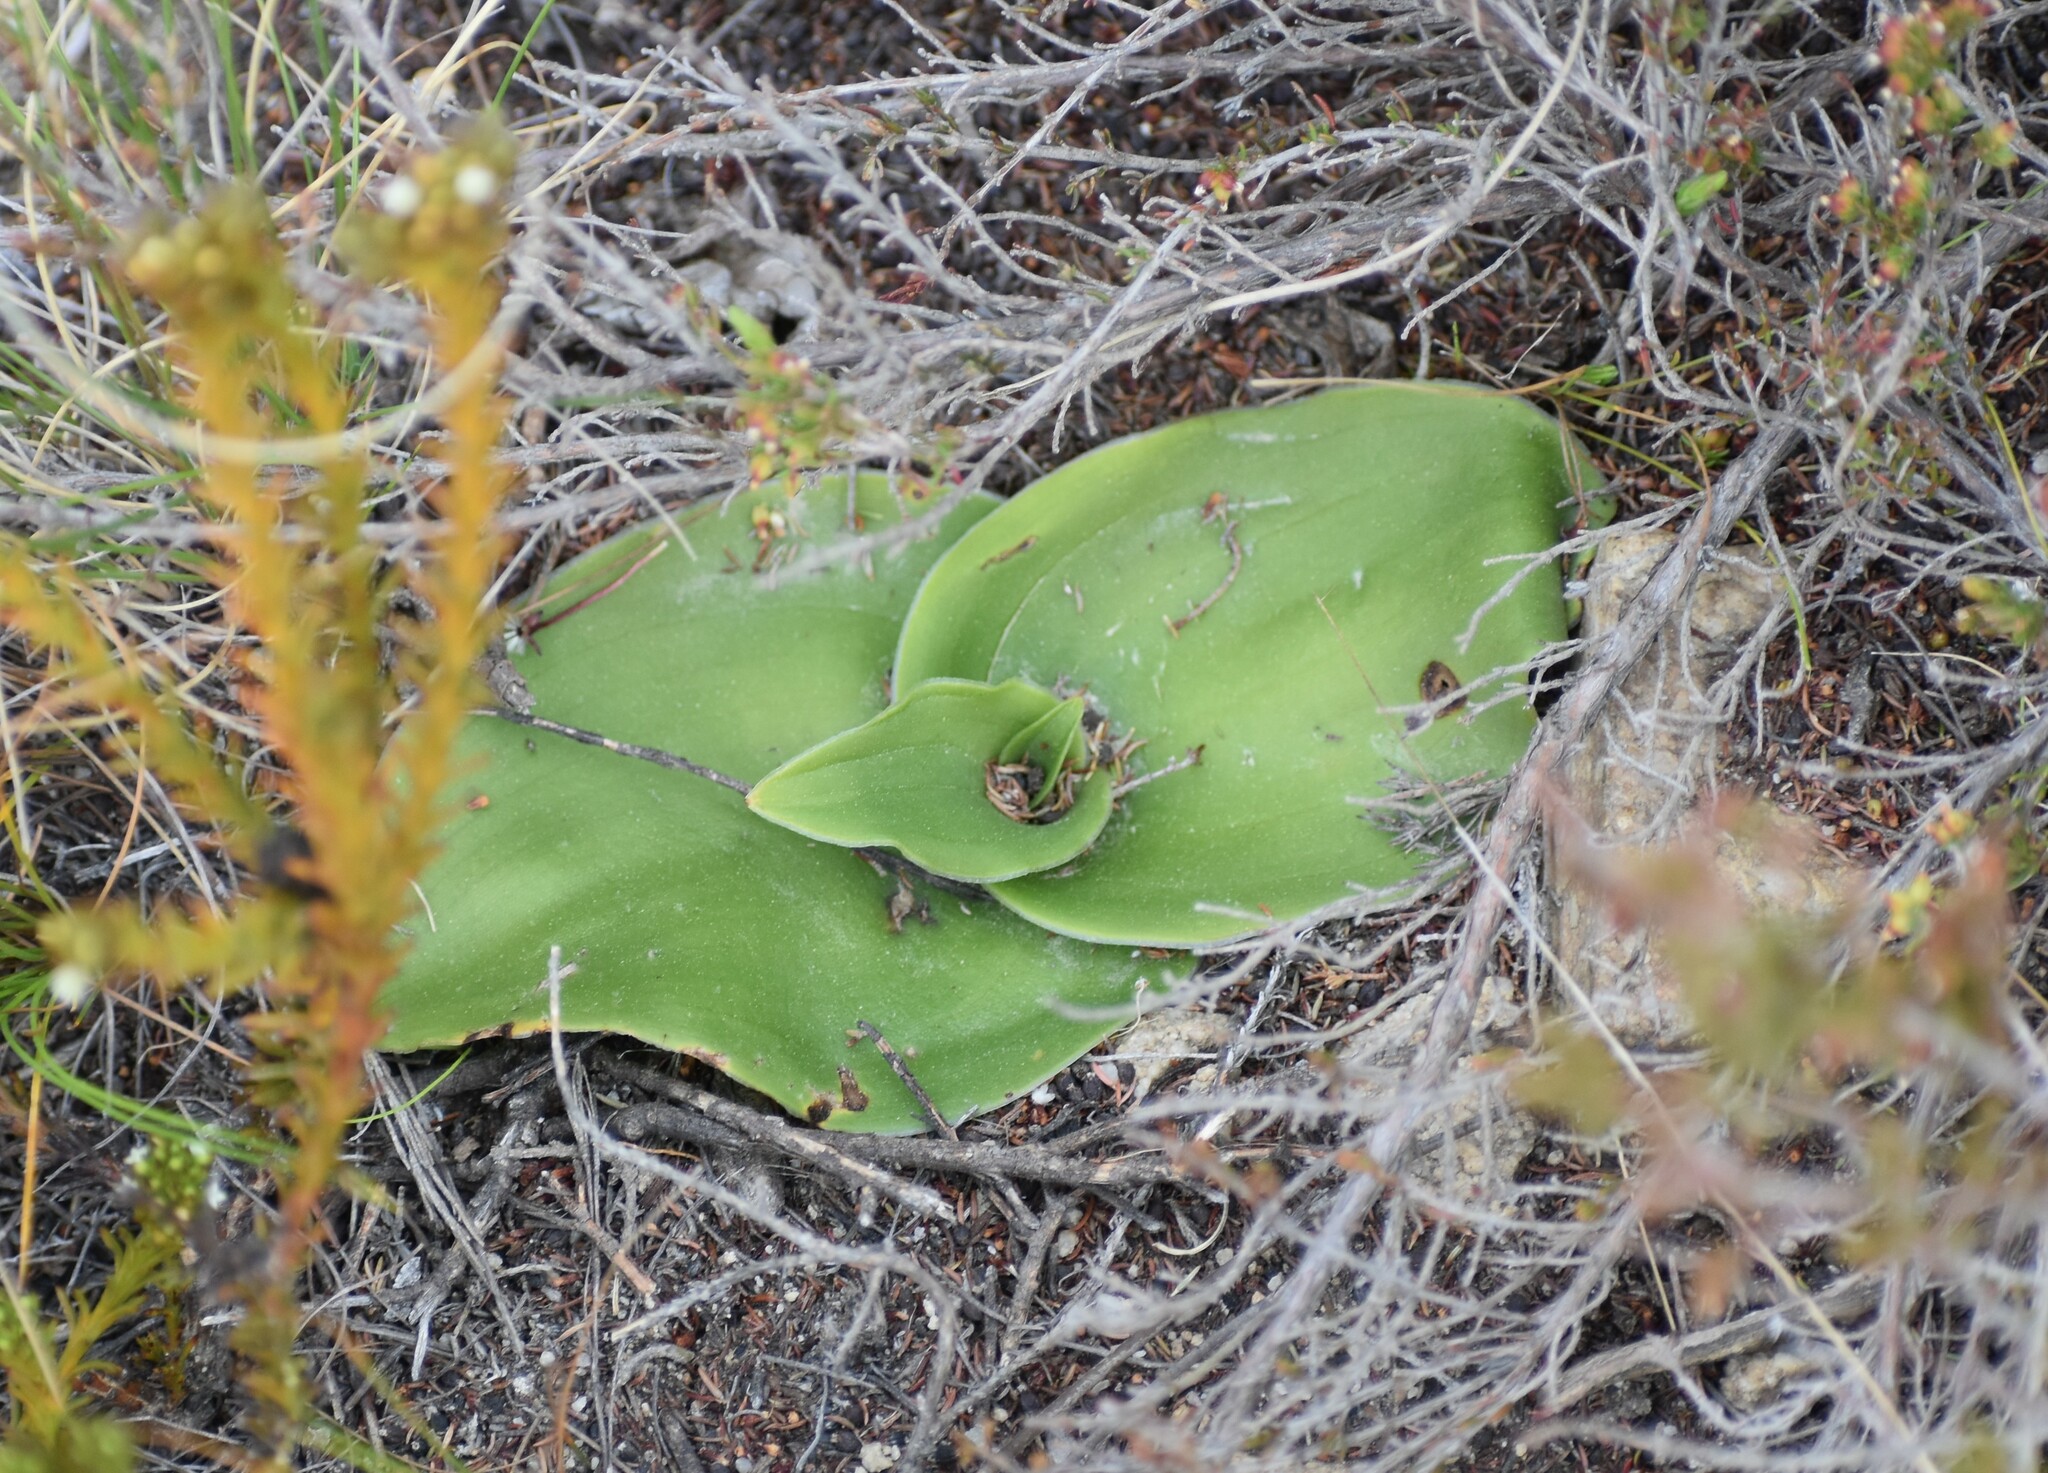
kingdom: Plantae
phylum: Tracheophyta
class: Liliopsida
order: Asparagales
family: Orchidaceae
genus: Satyrium
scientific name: Satyrium eurycalcaratum
